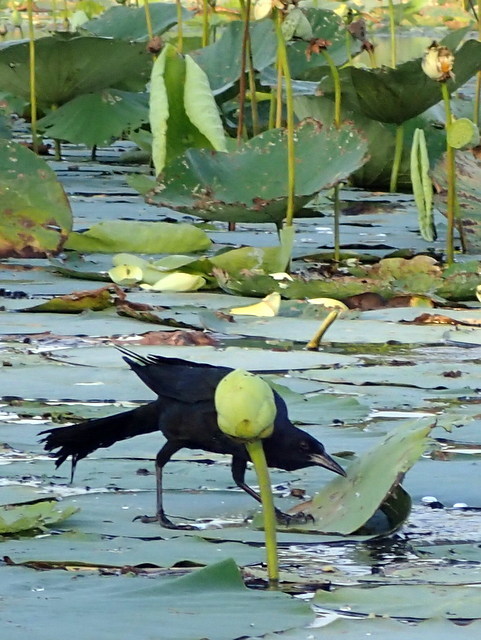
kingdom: Animalia
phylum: Chordata
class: Aves
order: Passeriformes
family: Icteridae
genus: Quiscalus
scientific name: Quiscalus major
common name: Boat-tailed grackle
